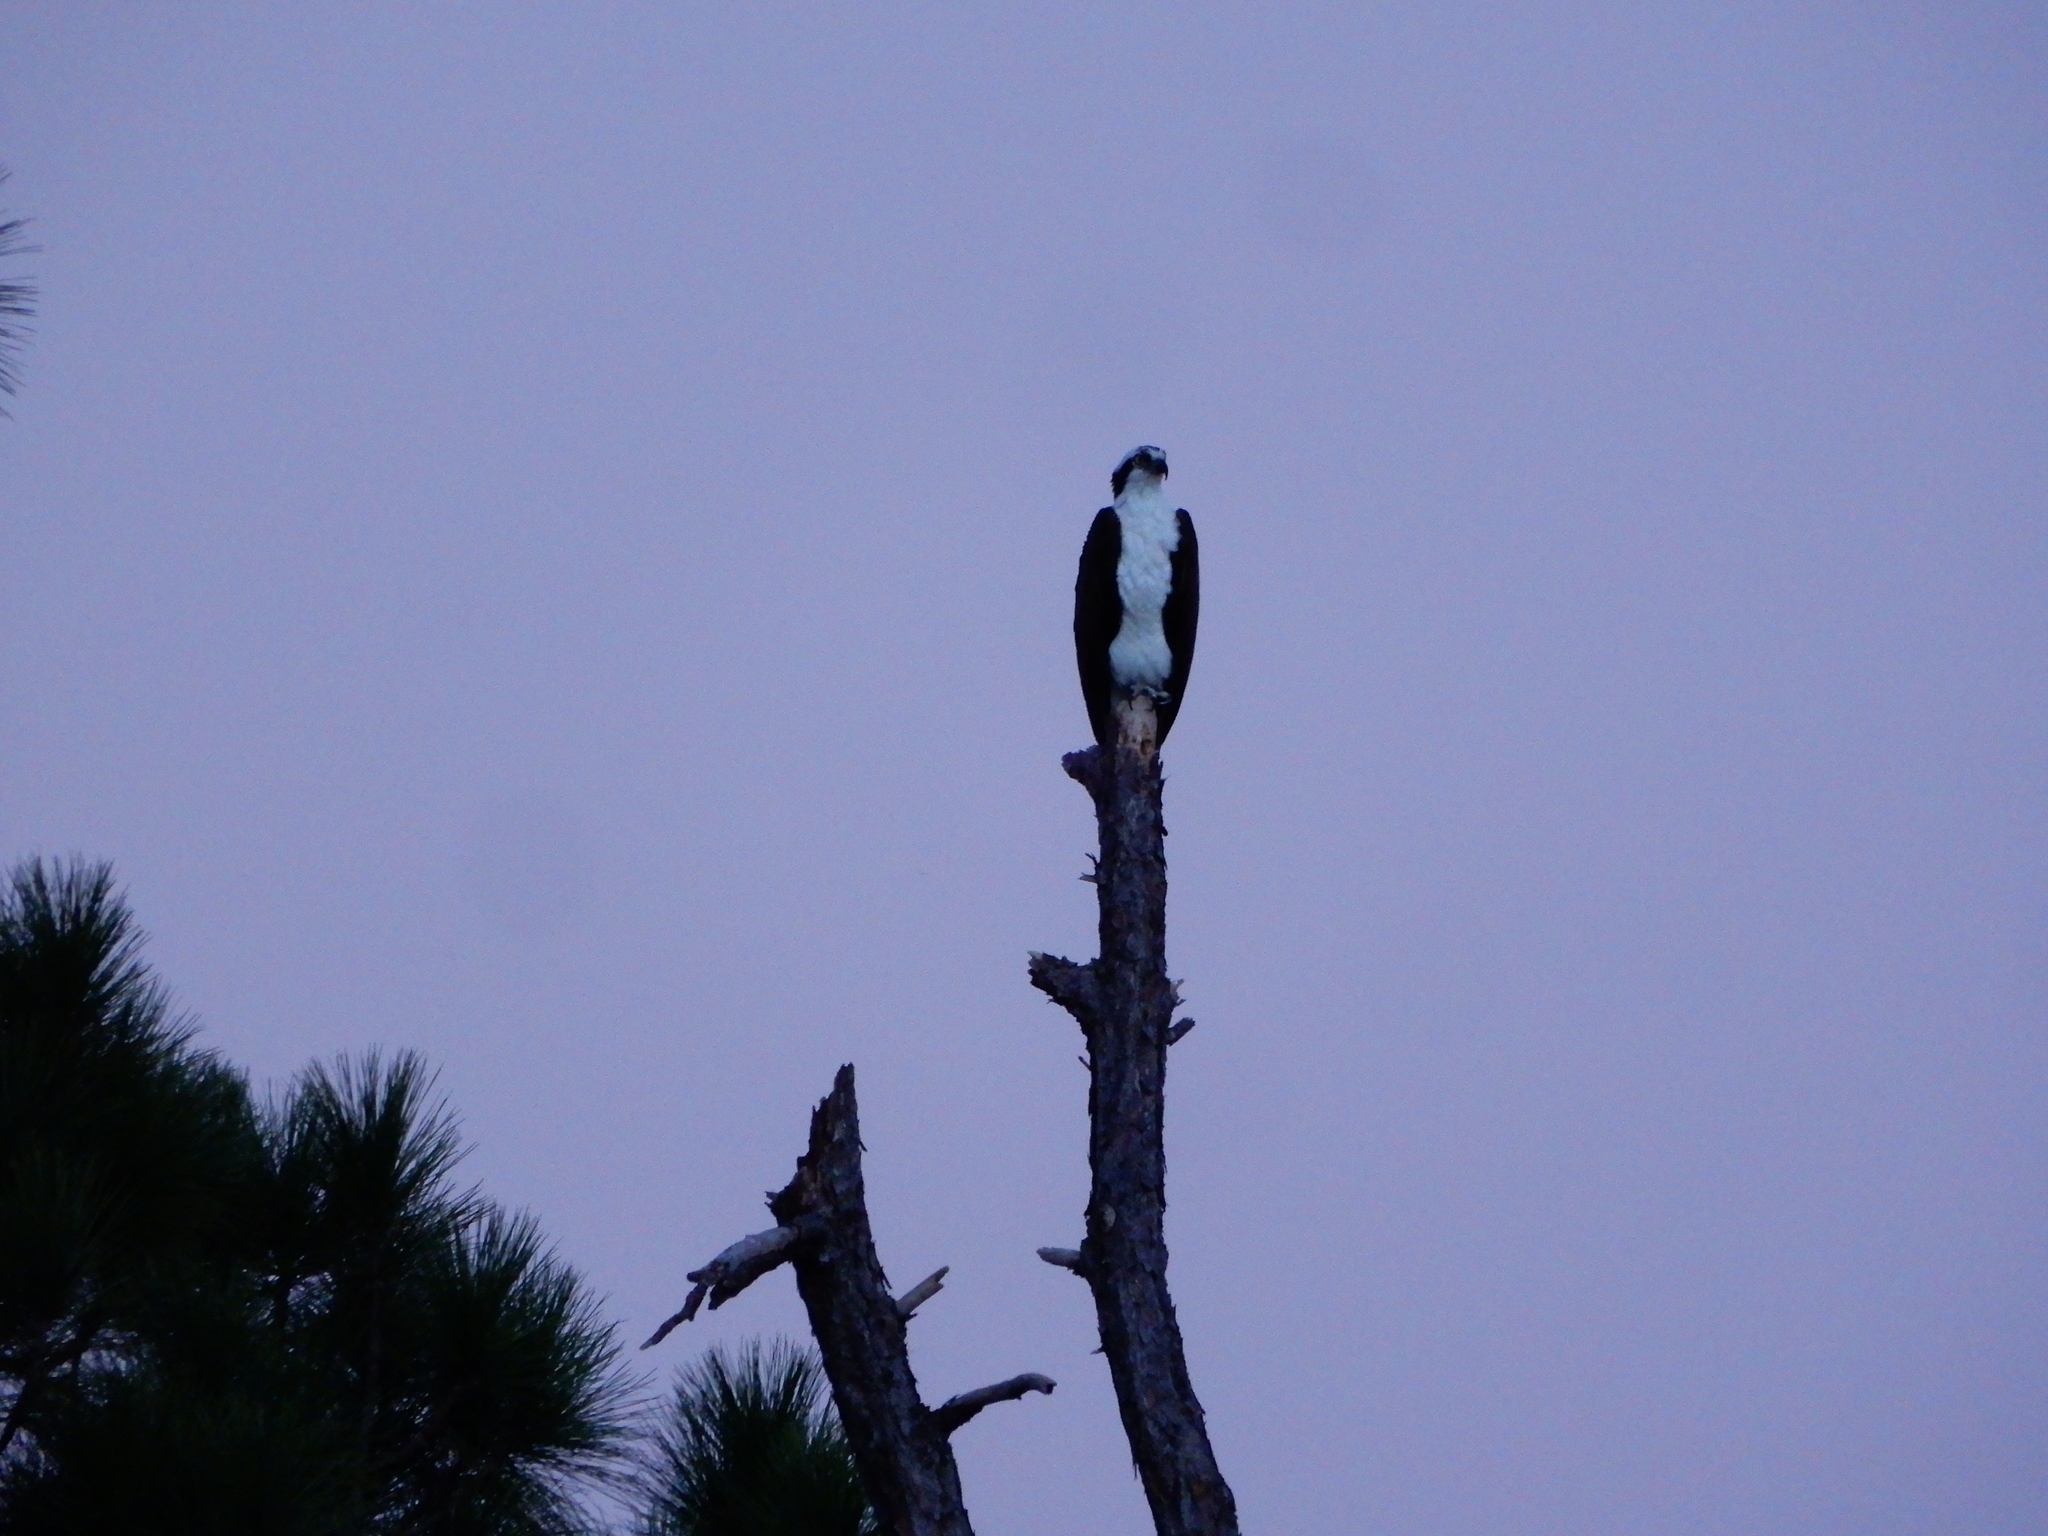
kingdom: Animalia
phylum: Chordata
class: Aves
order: Accipitriformes
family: Pandionidae
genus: Pandion
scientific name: Pandion haliaetus
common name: Osprey
